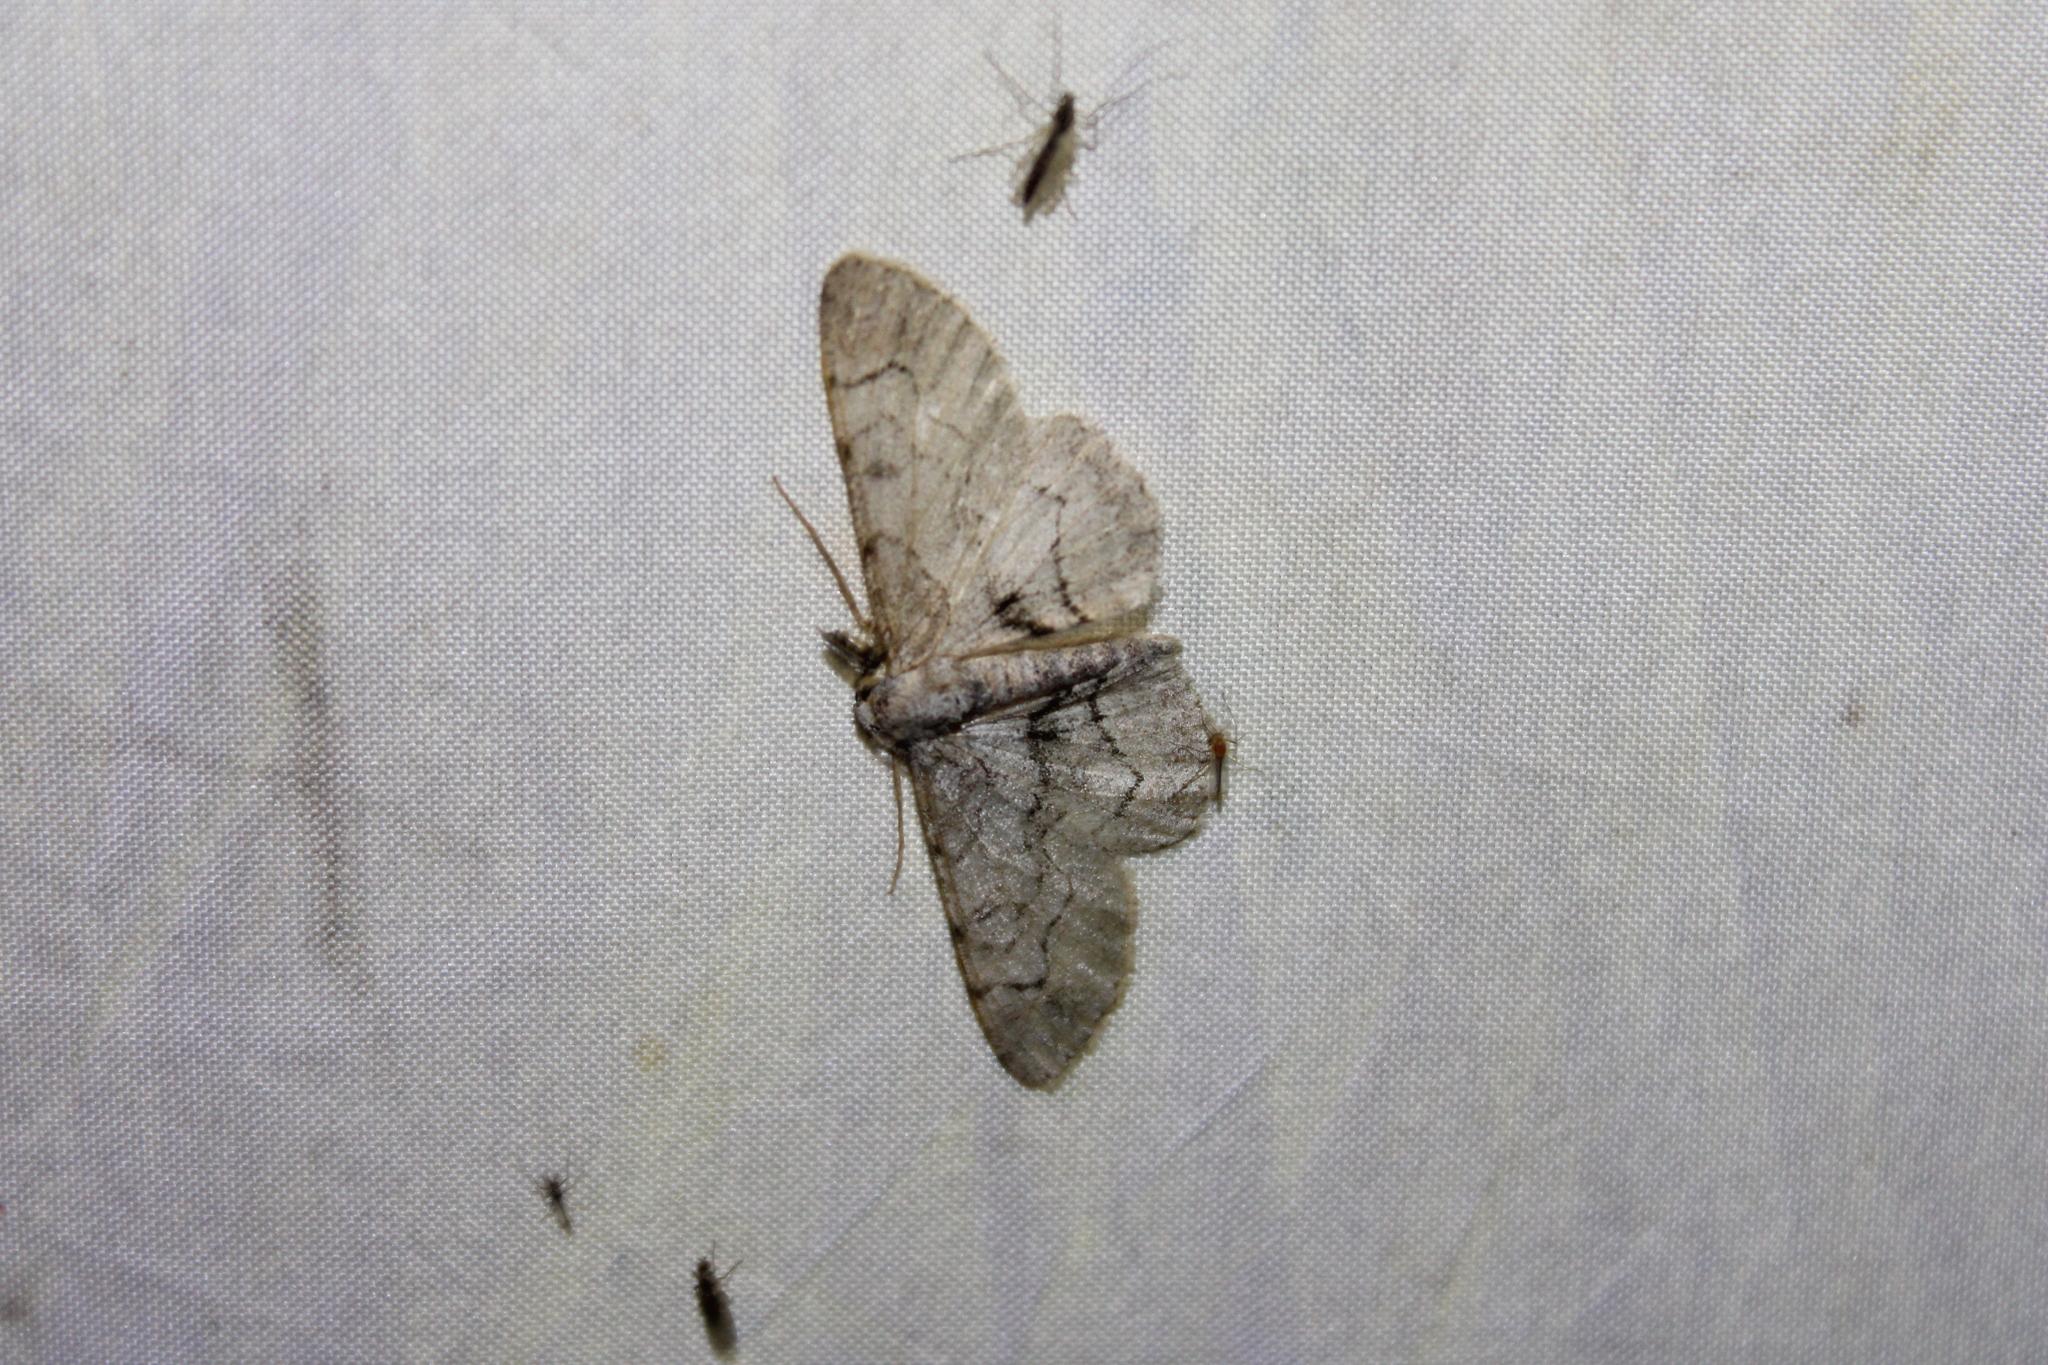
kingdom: Animalia
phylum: Arthropoda
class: Insecta
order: Lepidoptera
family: Geometridae
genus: Iridopsis
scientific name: Iridopsis larvaria
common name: Bent-line gray
